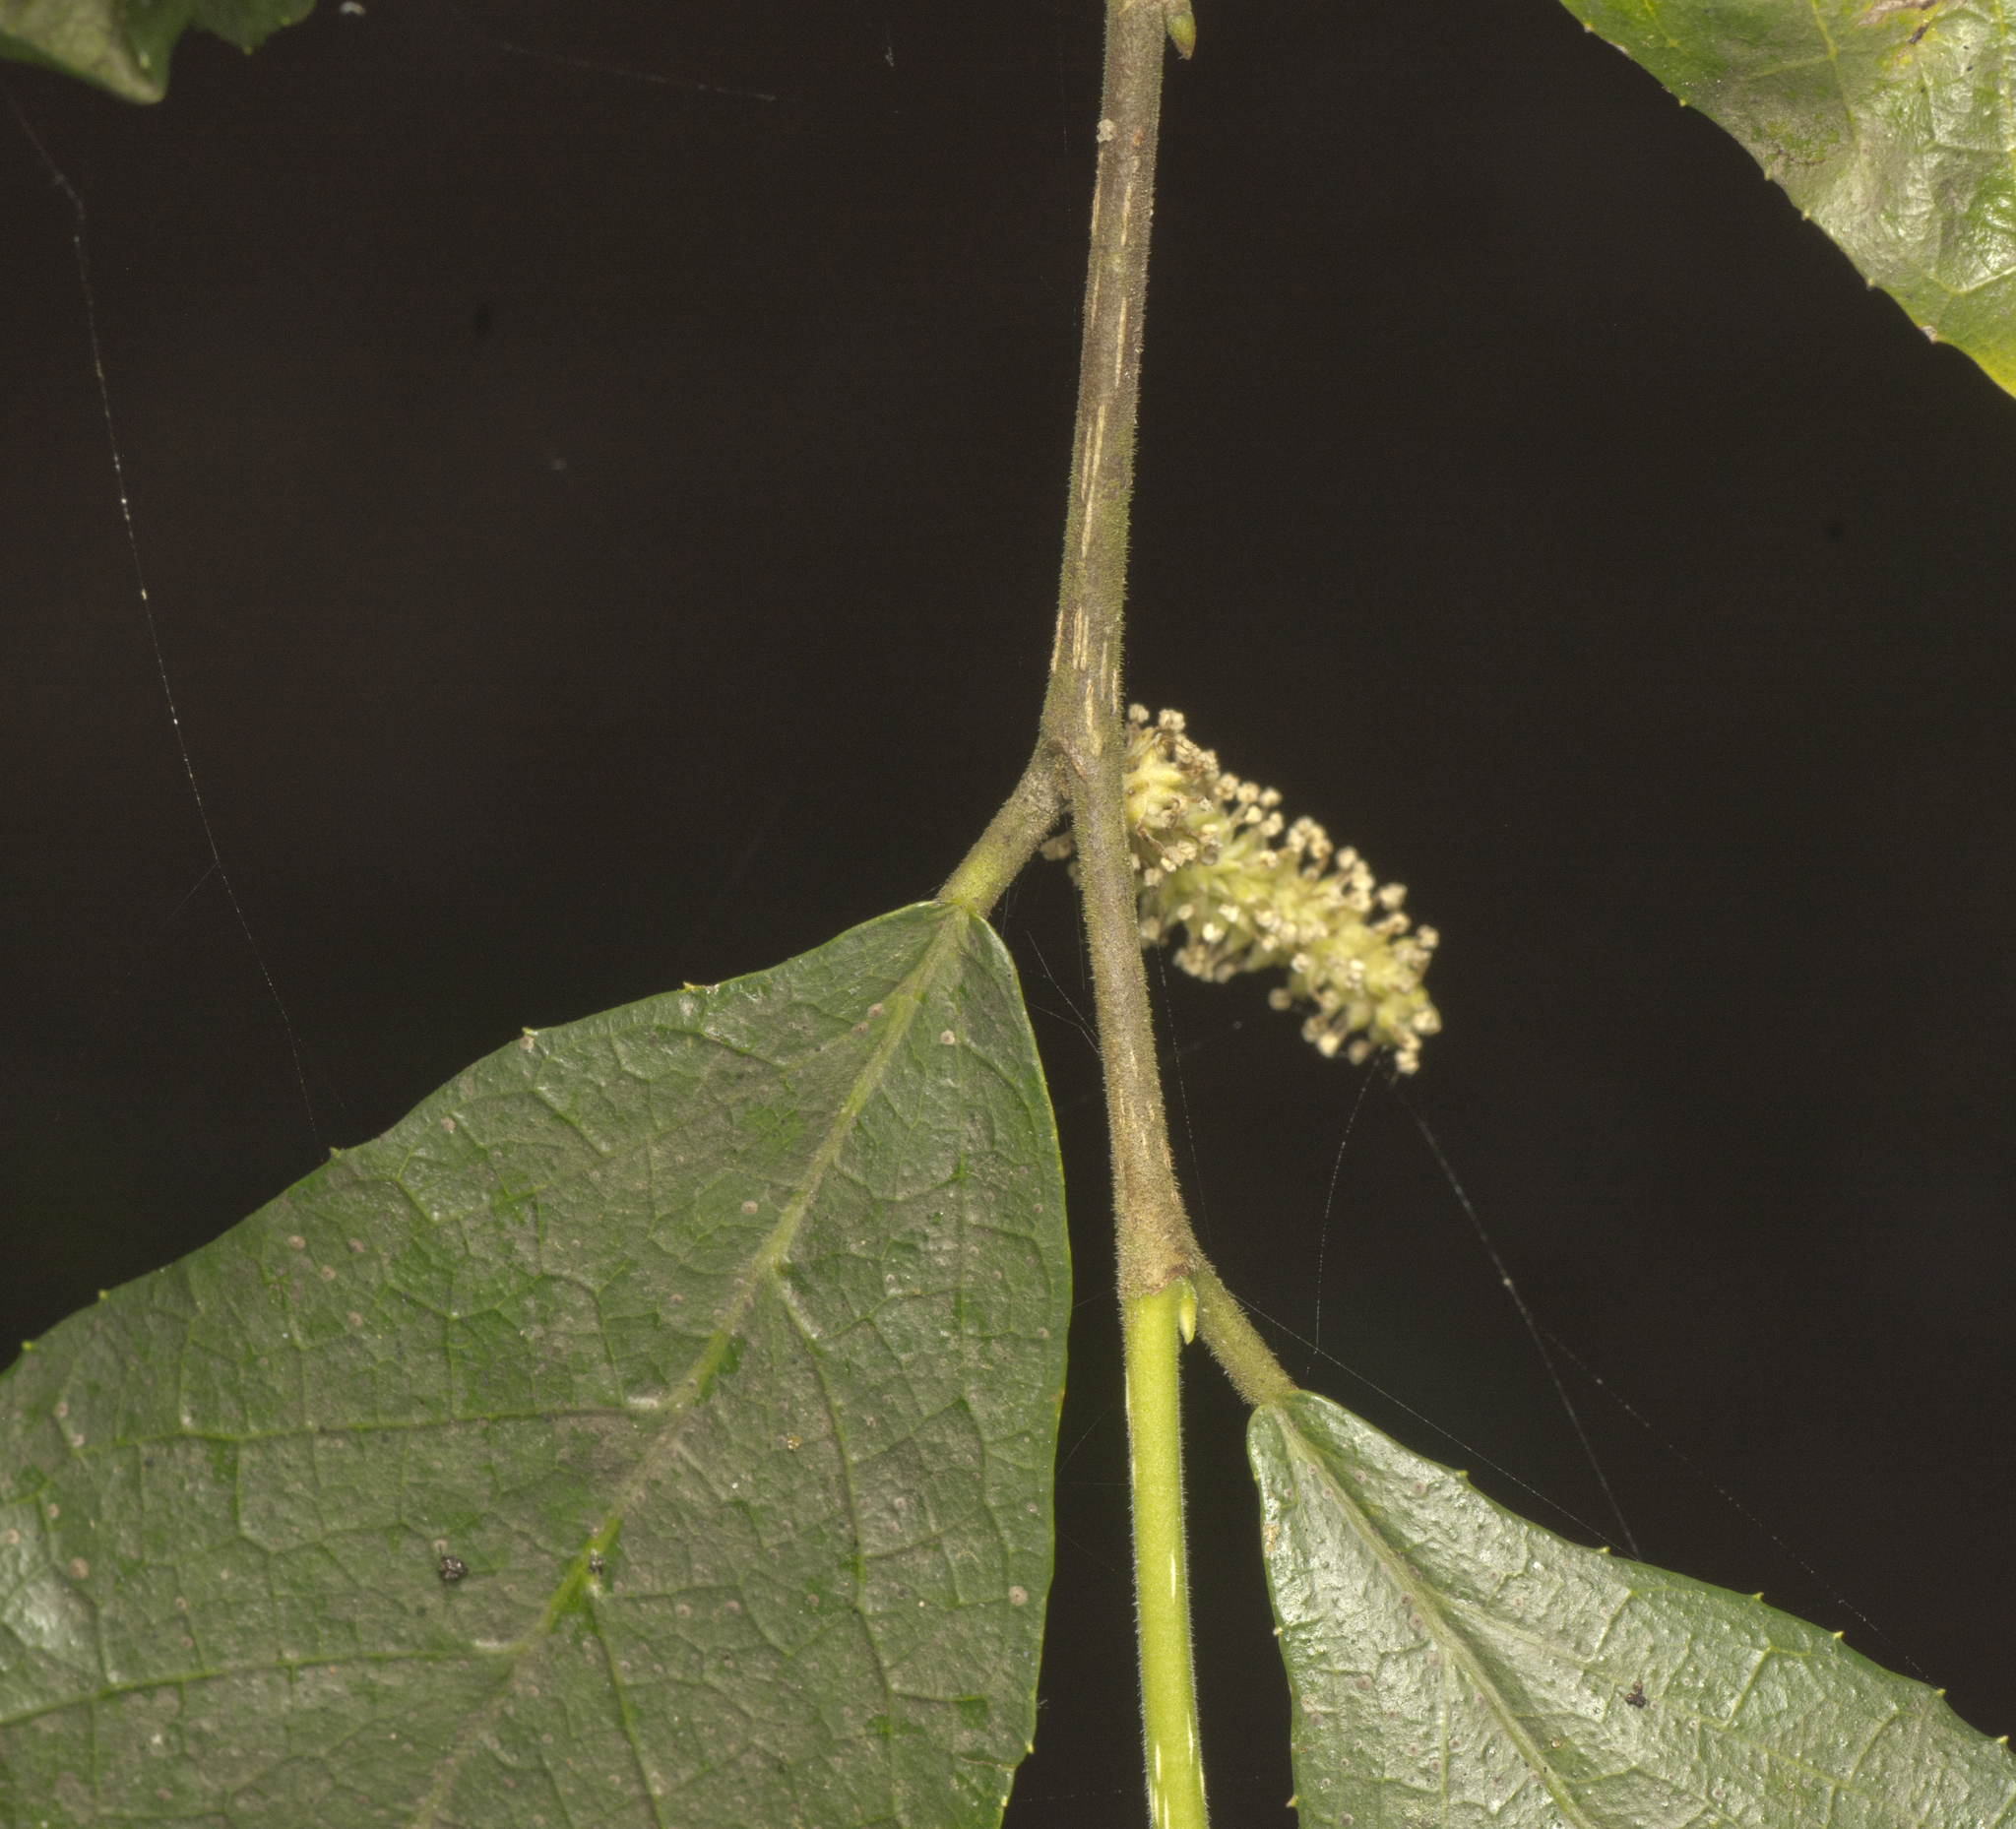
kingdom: Plantae
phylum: Tracheophyta
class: Magnoliopsida
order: Rosales
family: Moraceae
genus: Paratrophis
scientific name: Paratrophis pendulina
